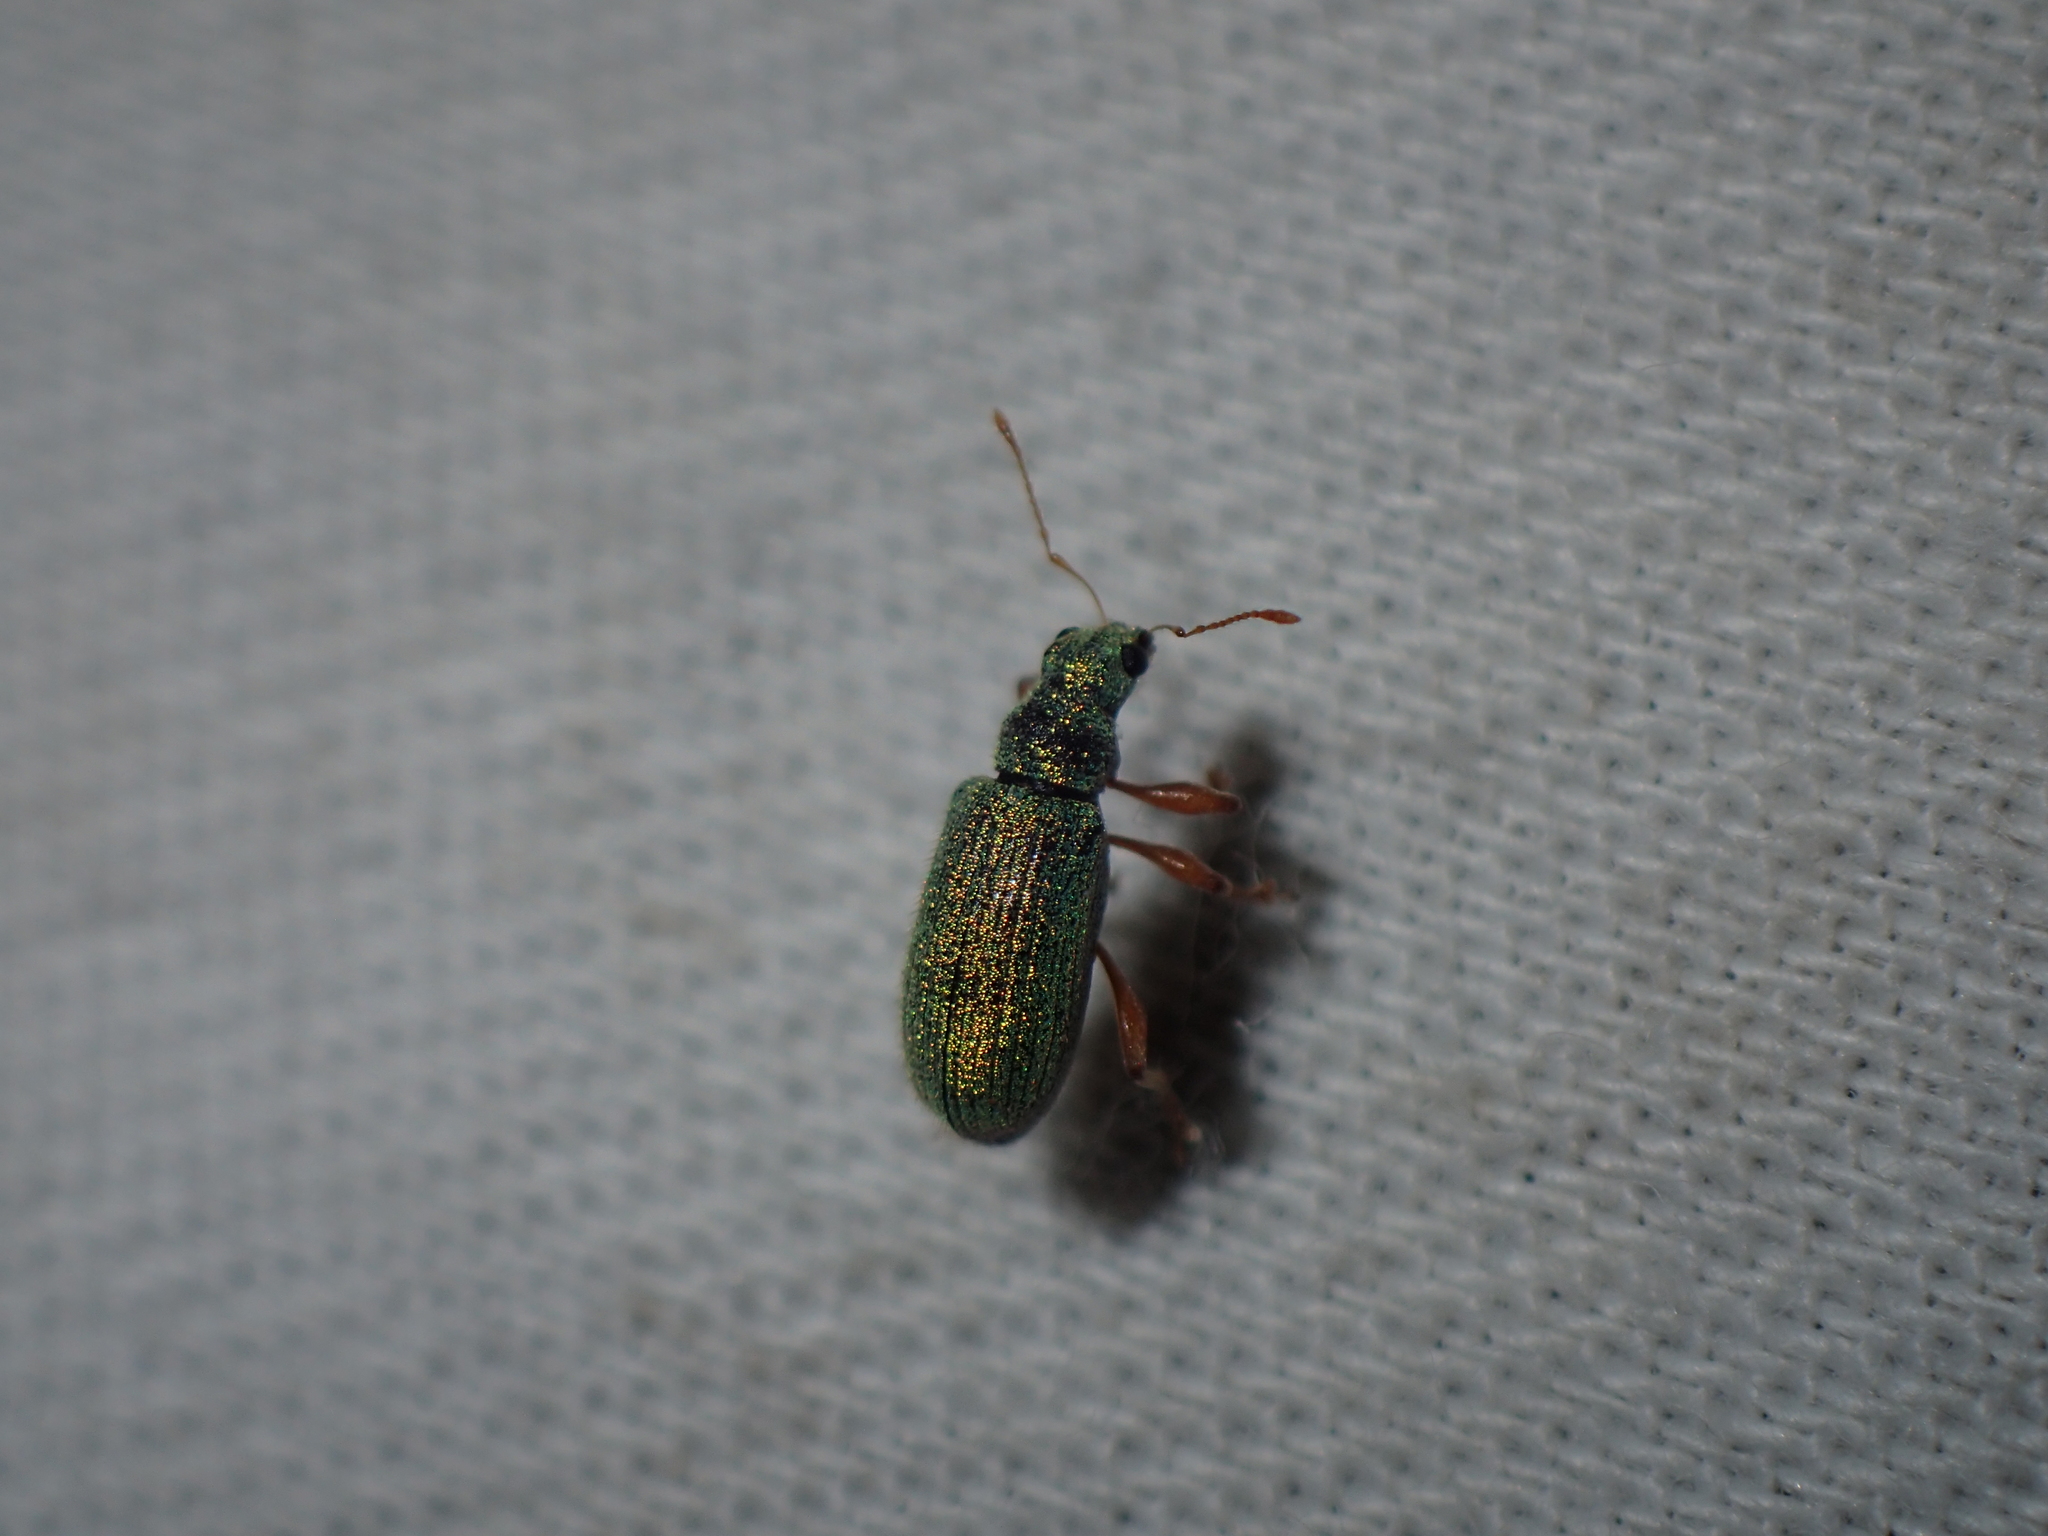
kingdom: Animalia
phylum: Arthropoda
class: Insecta
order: Coleoptera
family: Curculionidae
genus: Polydrusus
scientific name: Polydrusus pterygomalis
